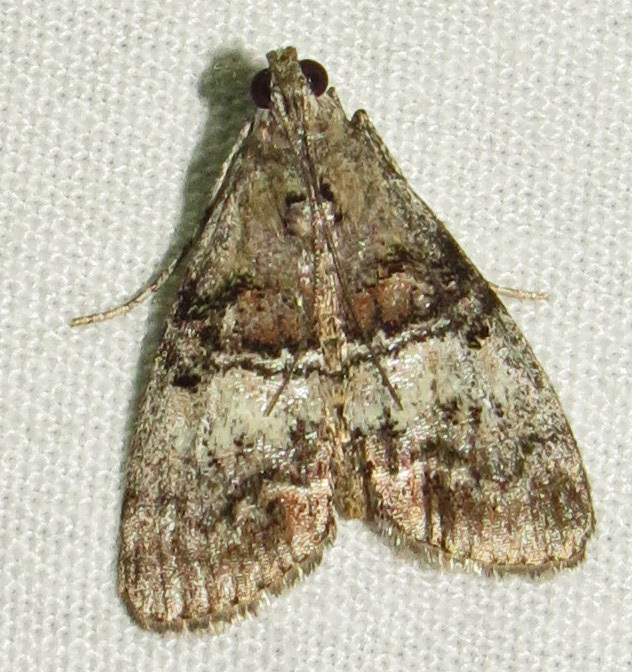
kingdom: Animalia
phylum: Arthropoda
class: Insecta
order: Lepidoptera
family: Pyralidae
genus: Pococera
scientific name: Pococera asperatella
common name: Maple webworm moth
